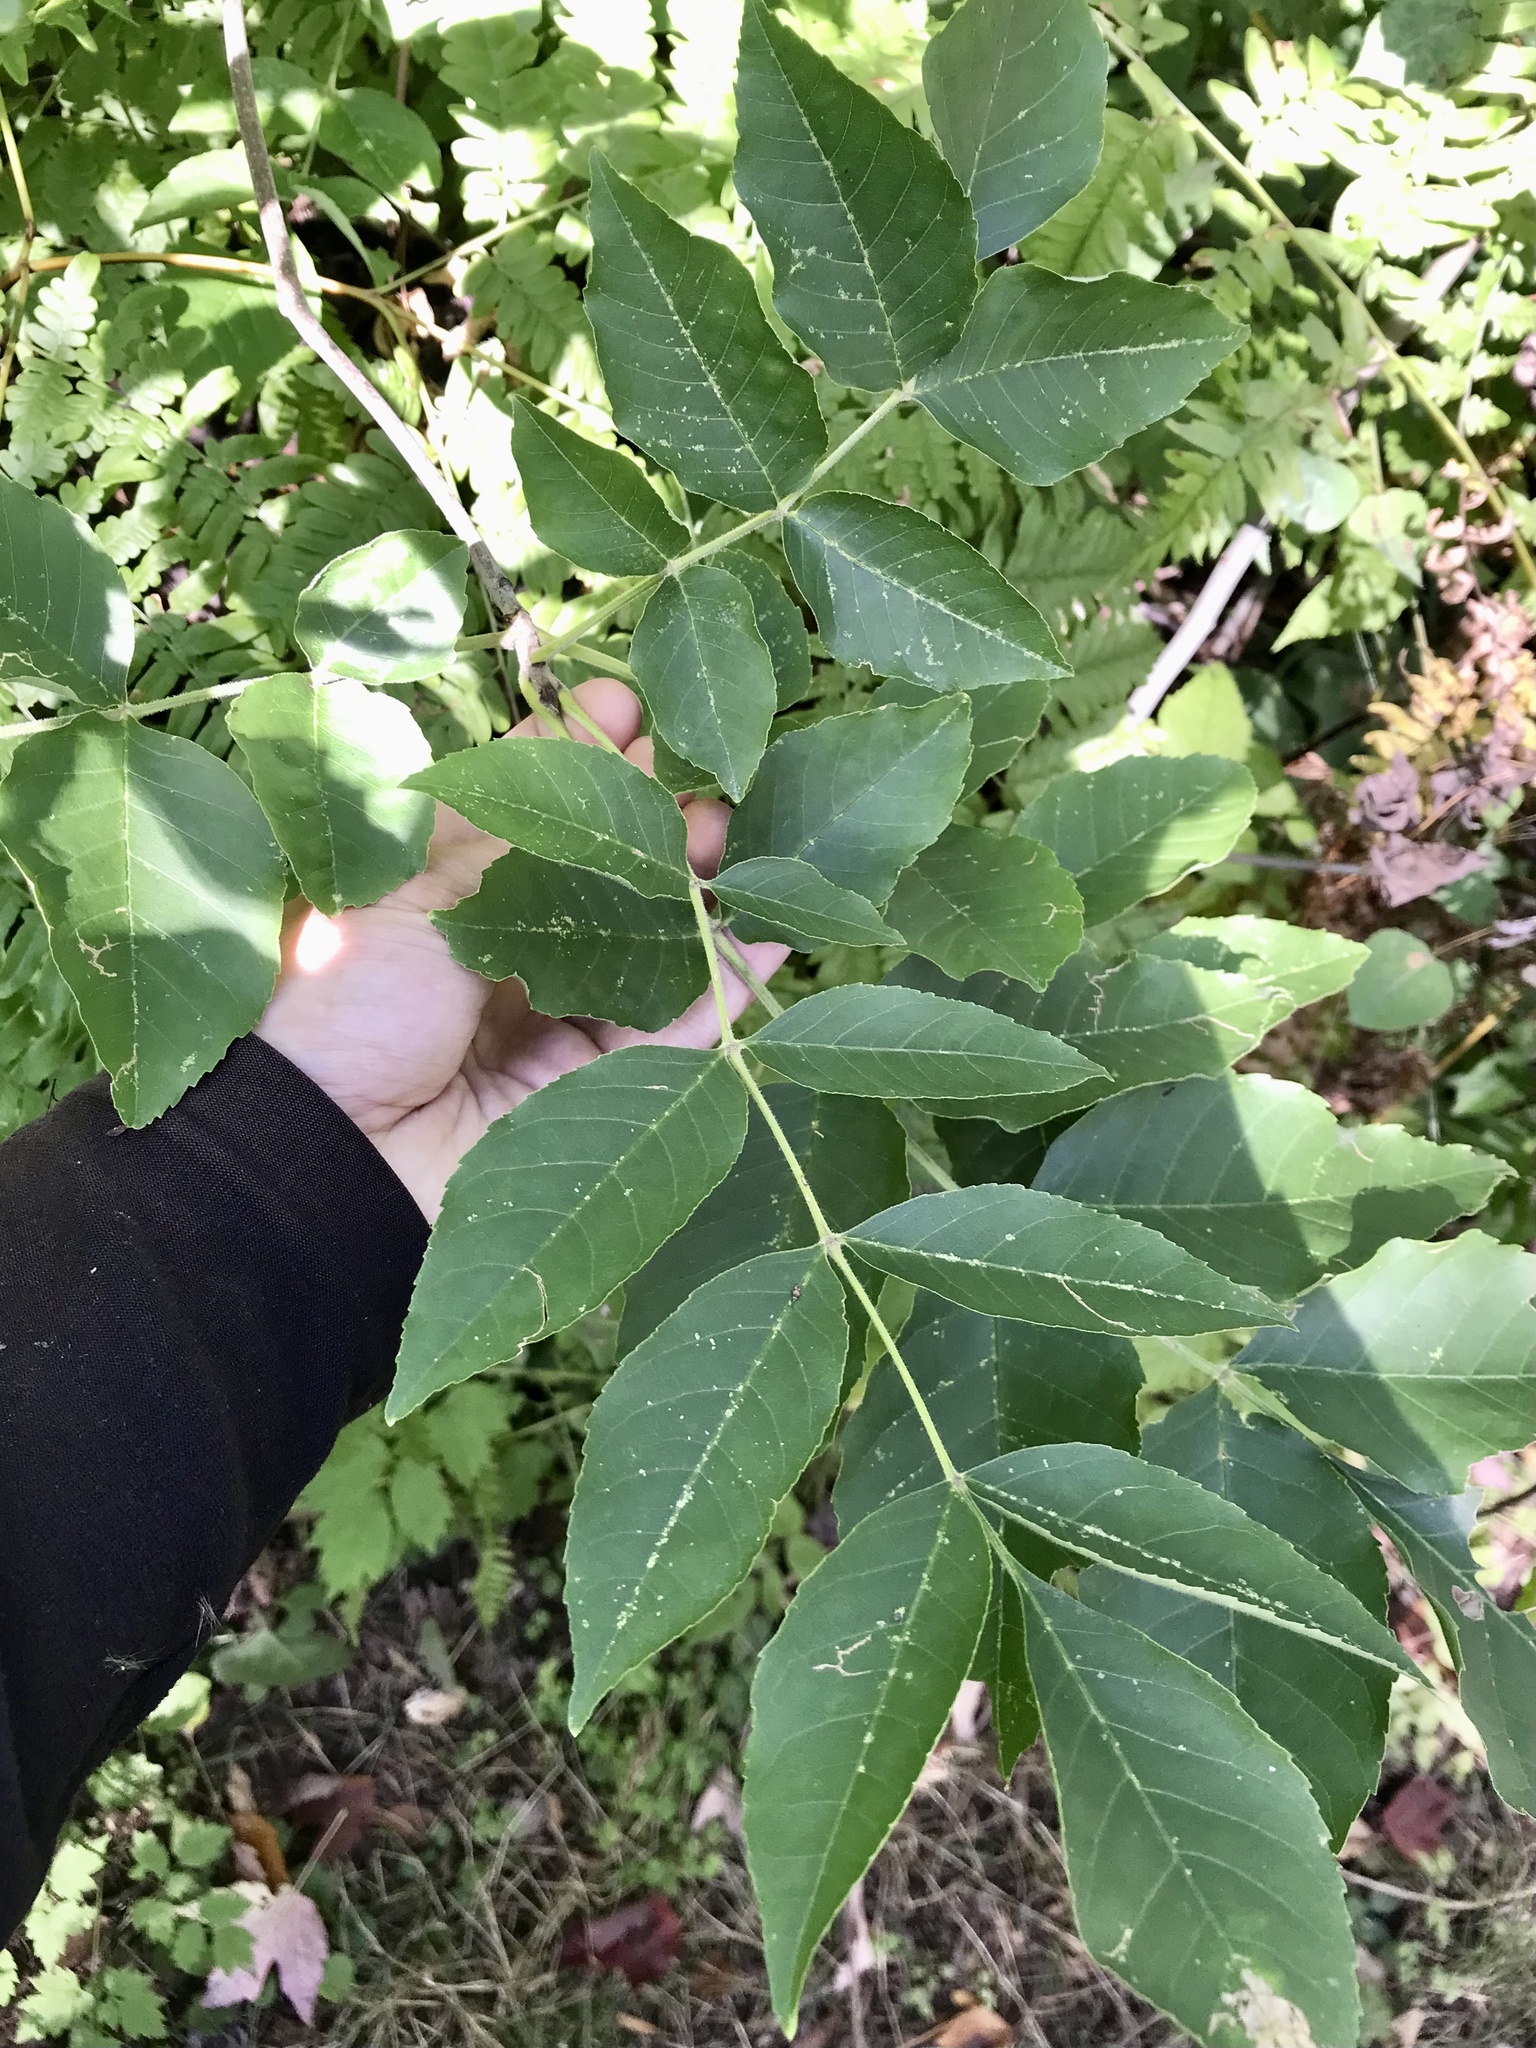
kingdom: Plantae
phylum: Tracheophyta
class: Magnoliopsida
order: Lamiales
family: Oleaceae
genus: Fraxinus
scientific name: Fraxinus pennsylvanica
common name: Green ash
